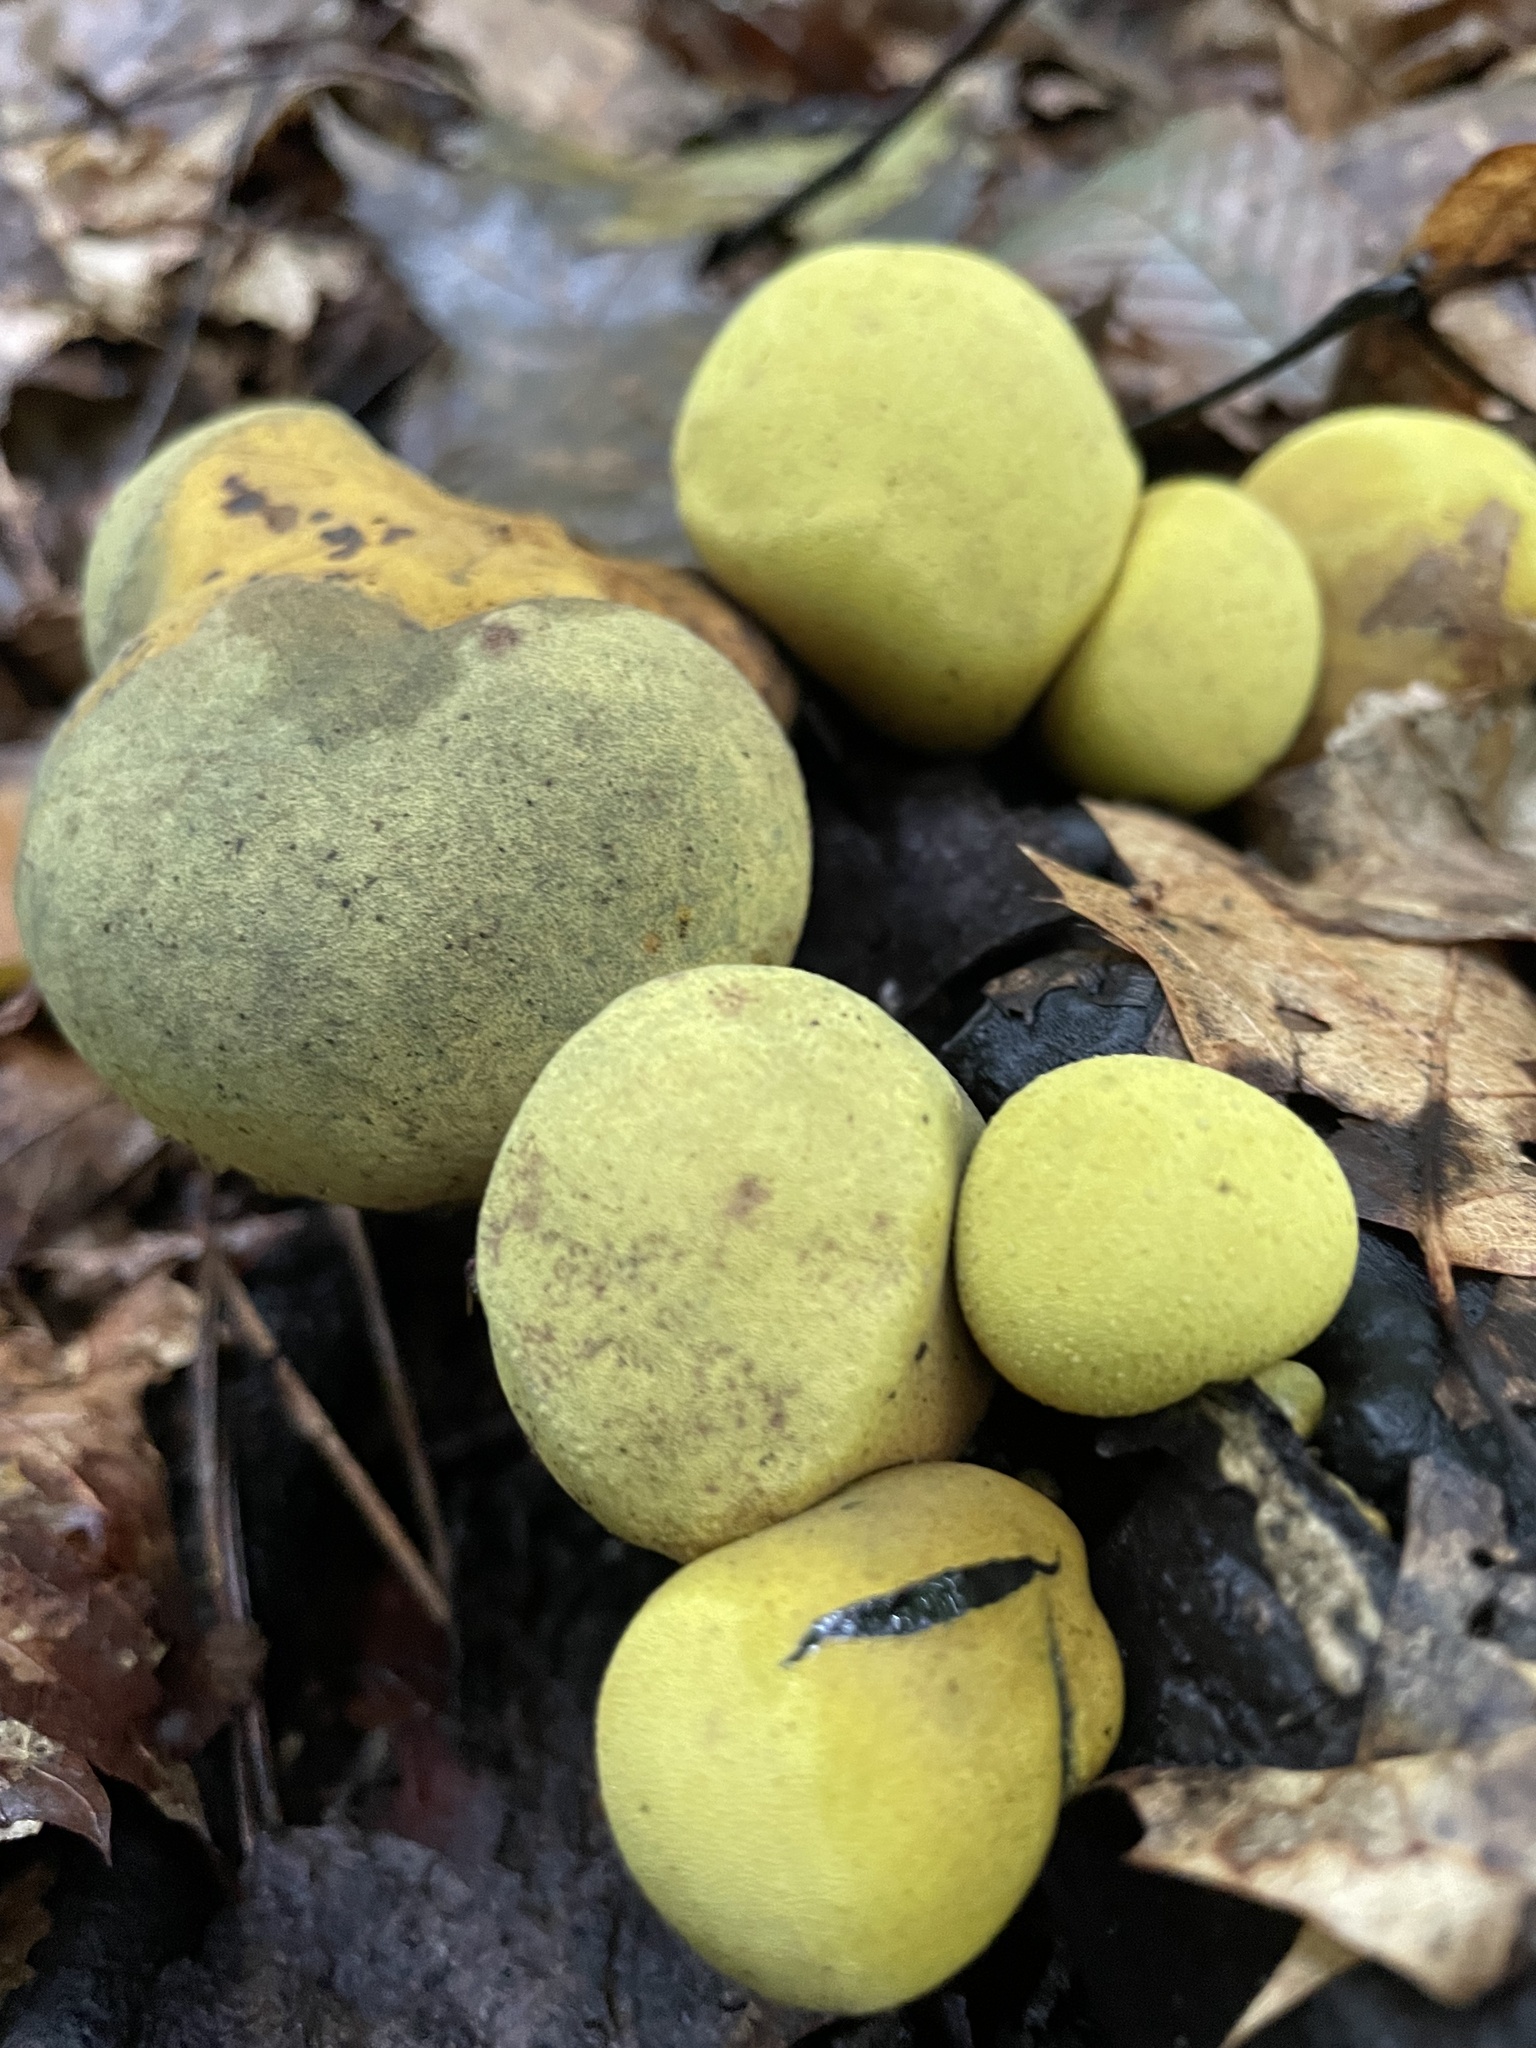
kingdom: Fungi
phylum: Ascomycota
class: Sordariomycetes
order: Xylariales
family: Hypoxylaceae
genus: Entonaema
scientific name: Entonaema liquescens
